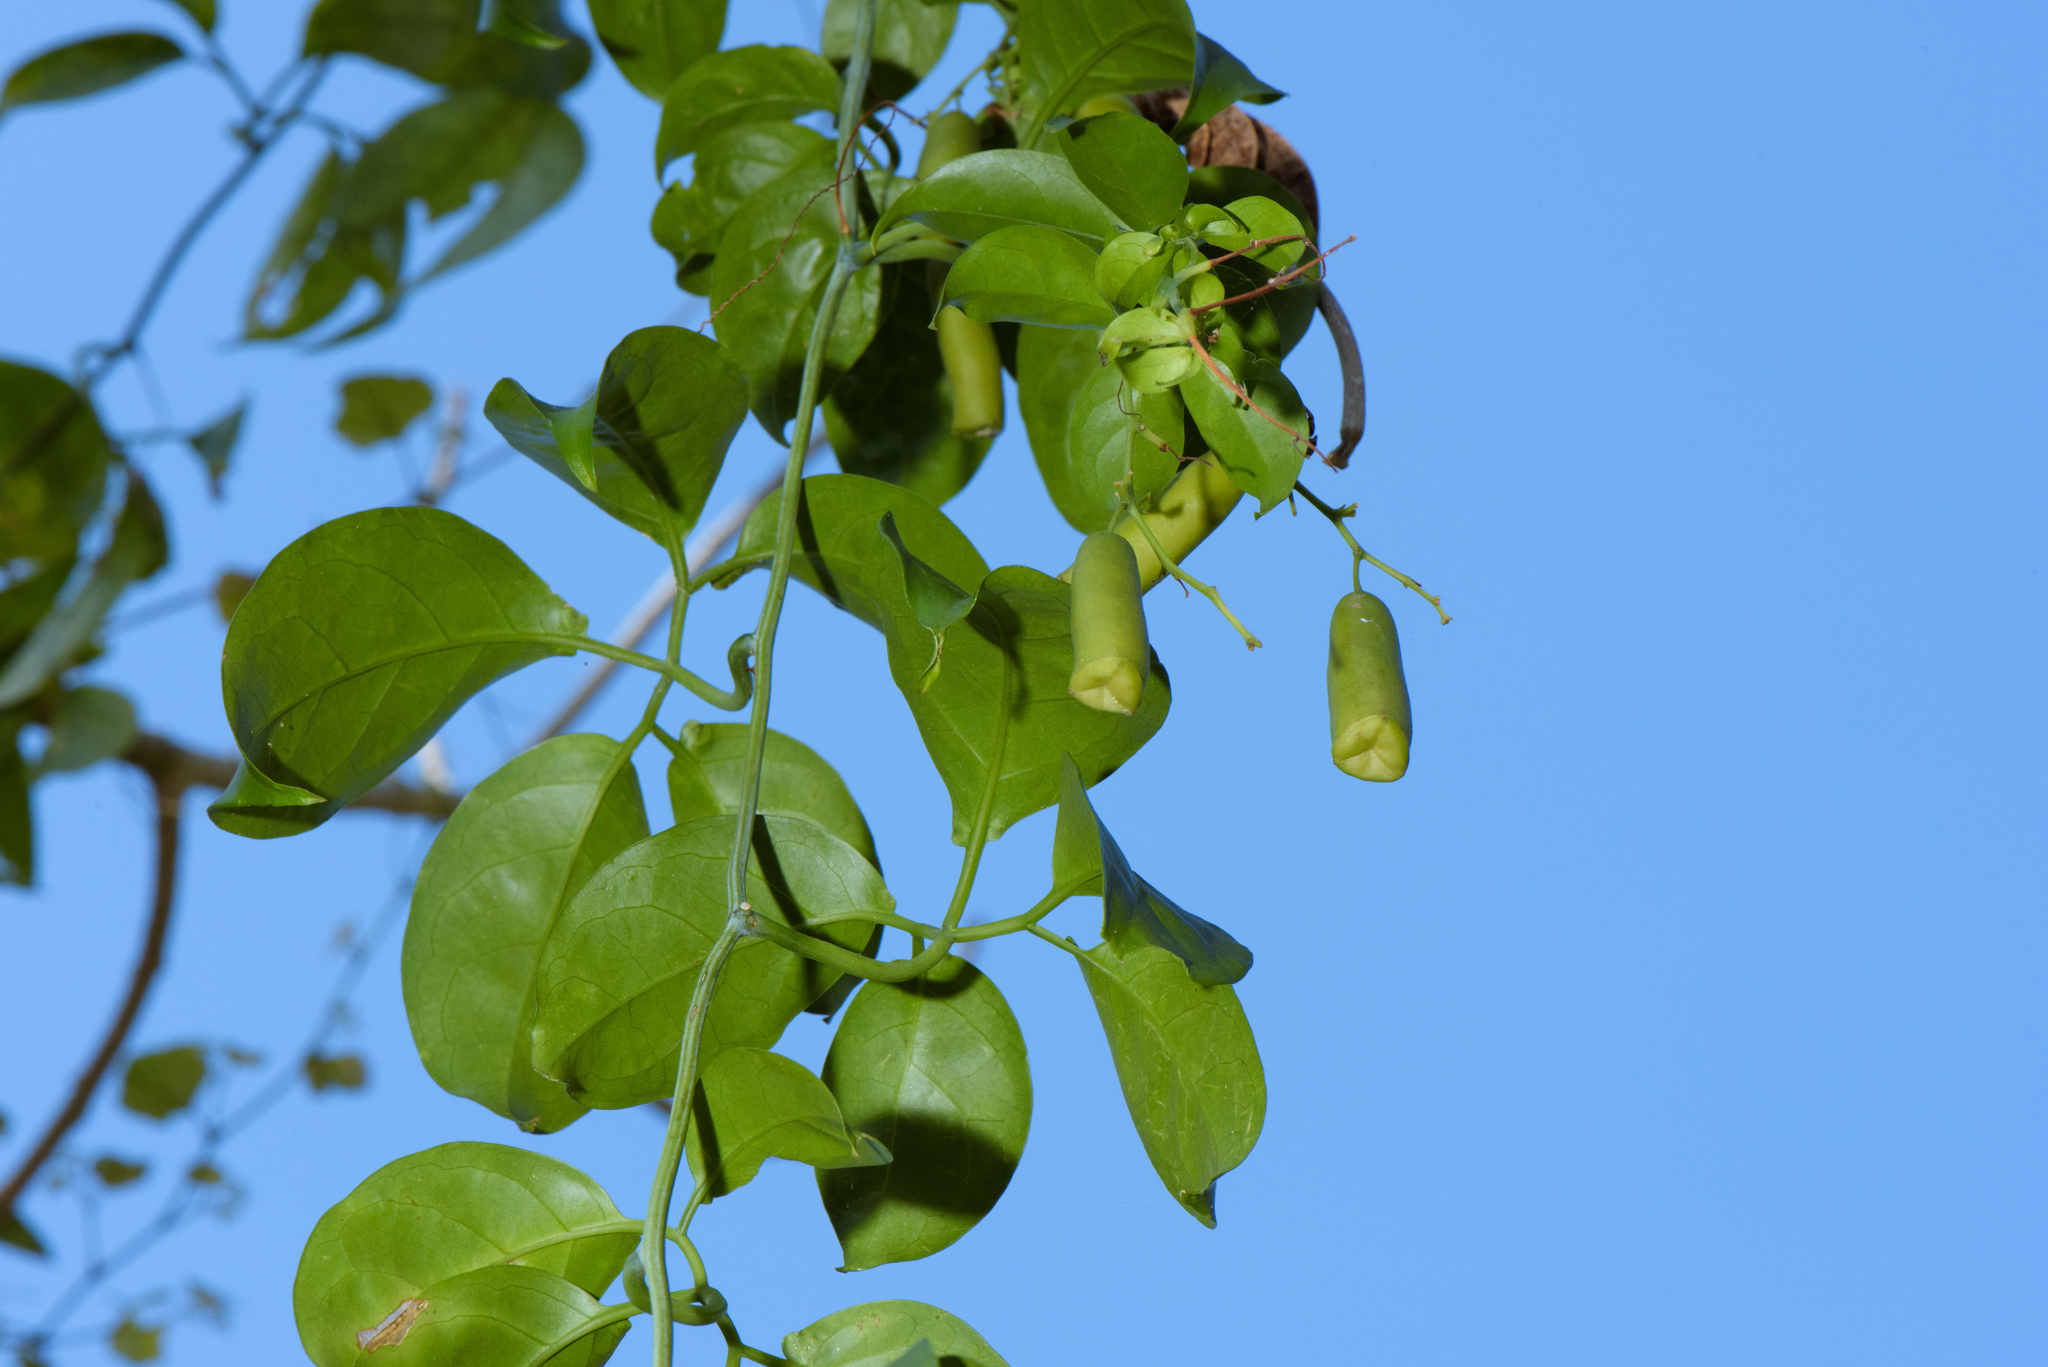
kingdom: Plantae
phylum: Tracheophyta
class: Magnoliopsida
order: Cucurbitales
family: Cucurbitaceae
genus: Neoalsomitra
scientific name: Neoalsomitra clavigera
